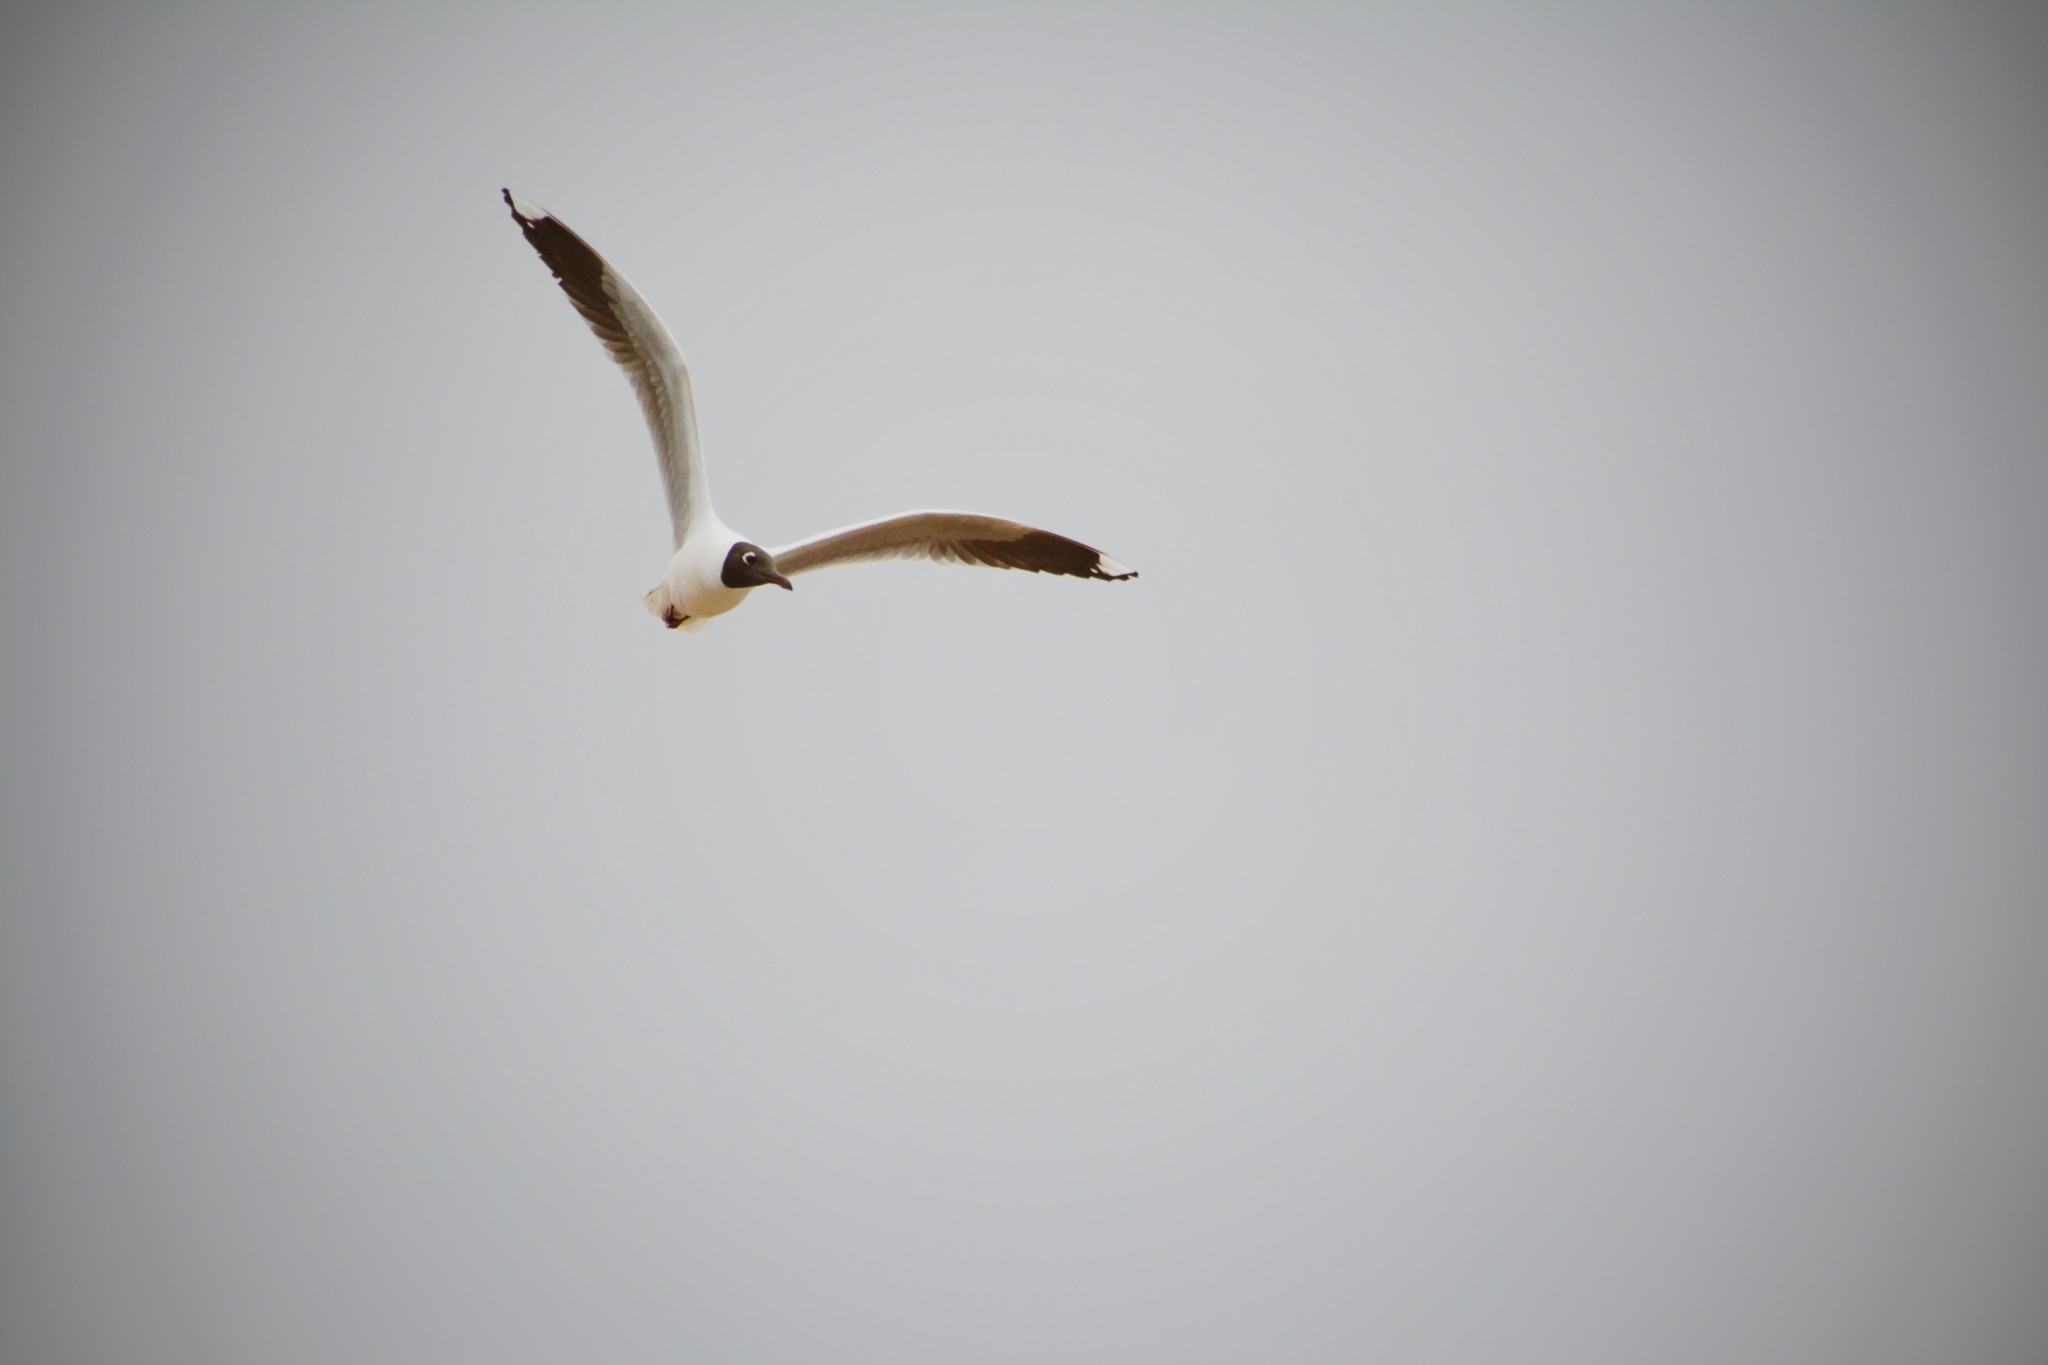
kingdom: Animalia
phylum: Chordata
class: Aves
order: Charadriiformes
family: Laridae
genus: Chroicocephalus
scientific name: Chroicocephalus maculipennis
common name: Brown-hooded gull
